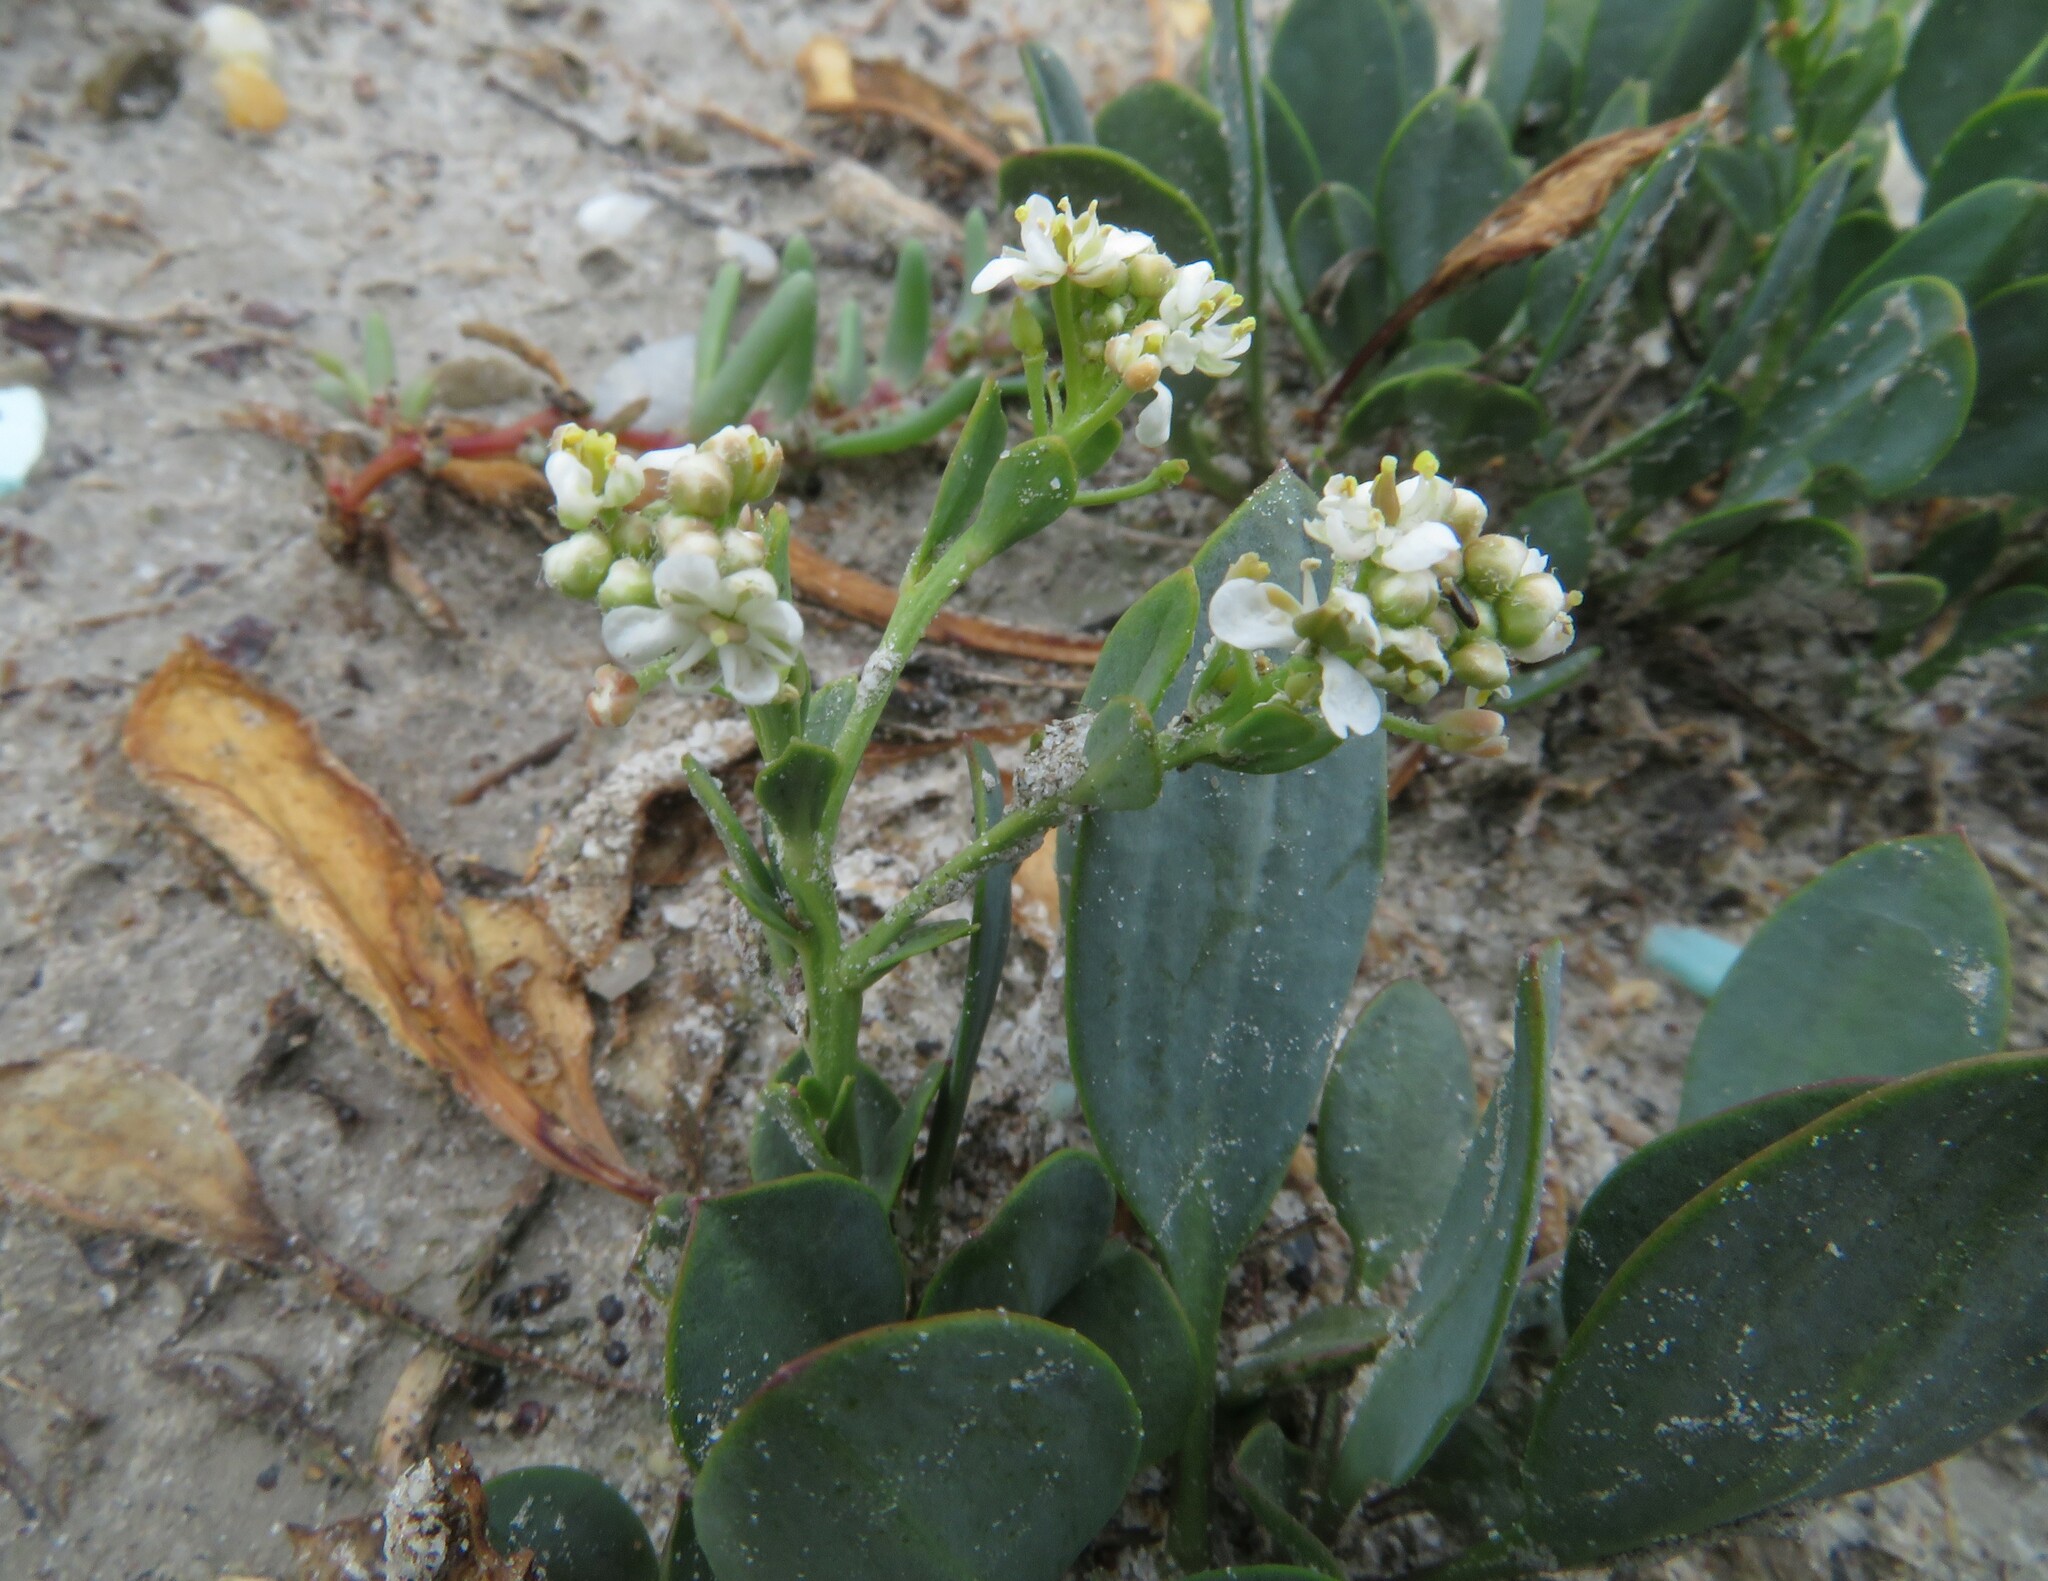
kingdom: Plantae
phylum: Tracheophyta
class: Magnoliopsida
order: Brassicales
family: Brassicaceae
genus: Lepidium
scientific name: Lepidium cartilagineum
